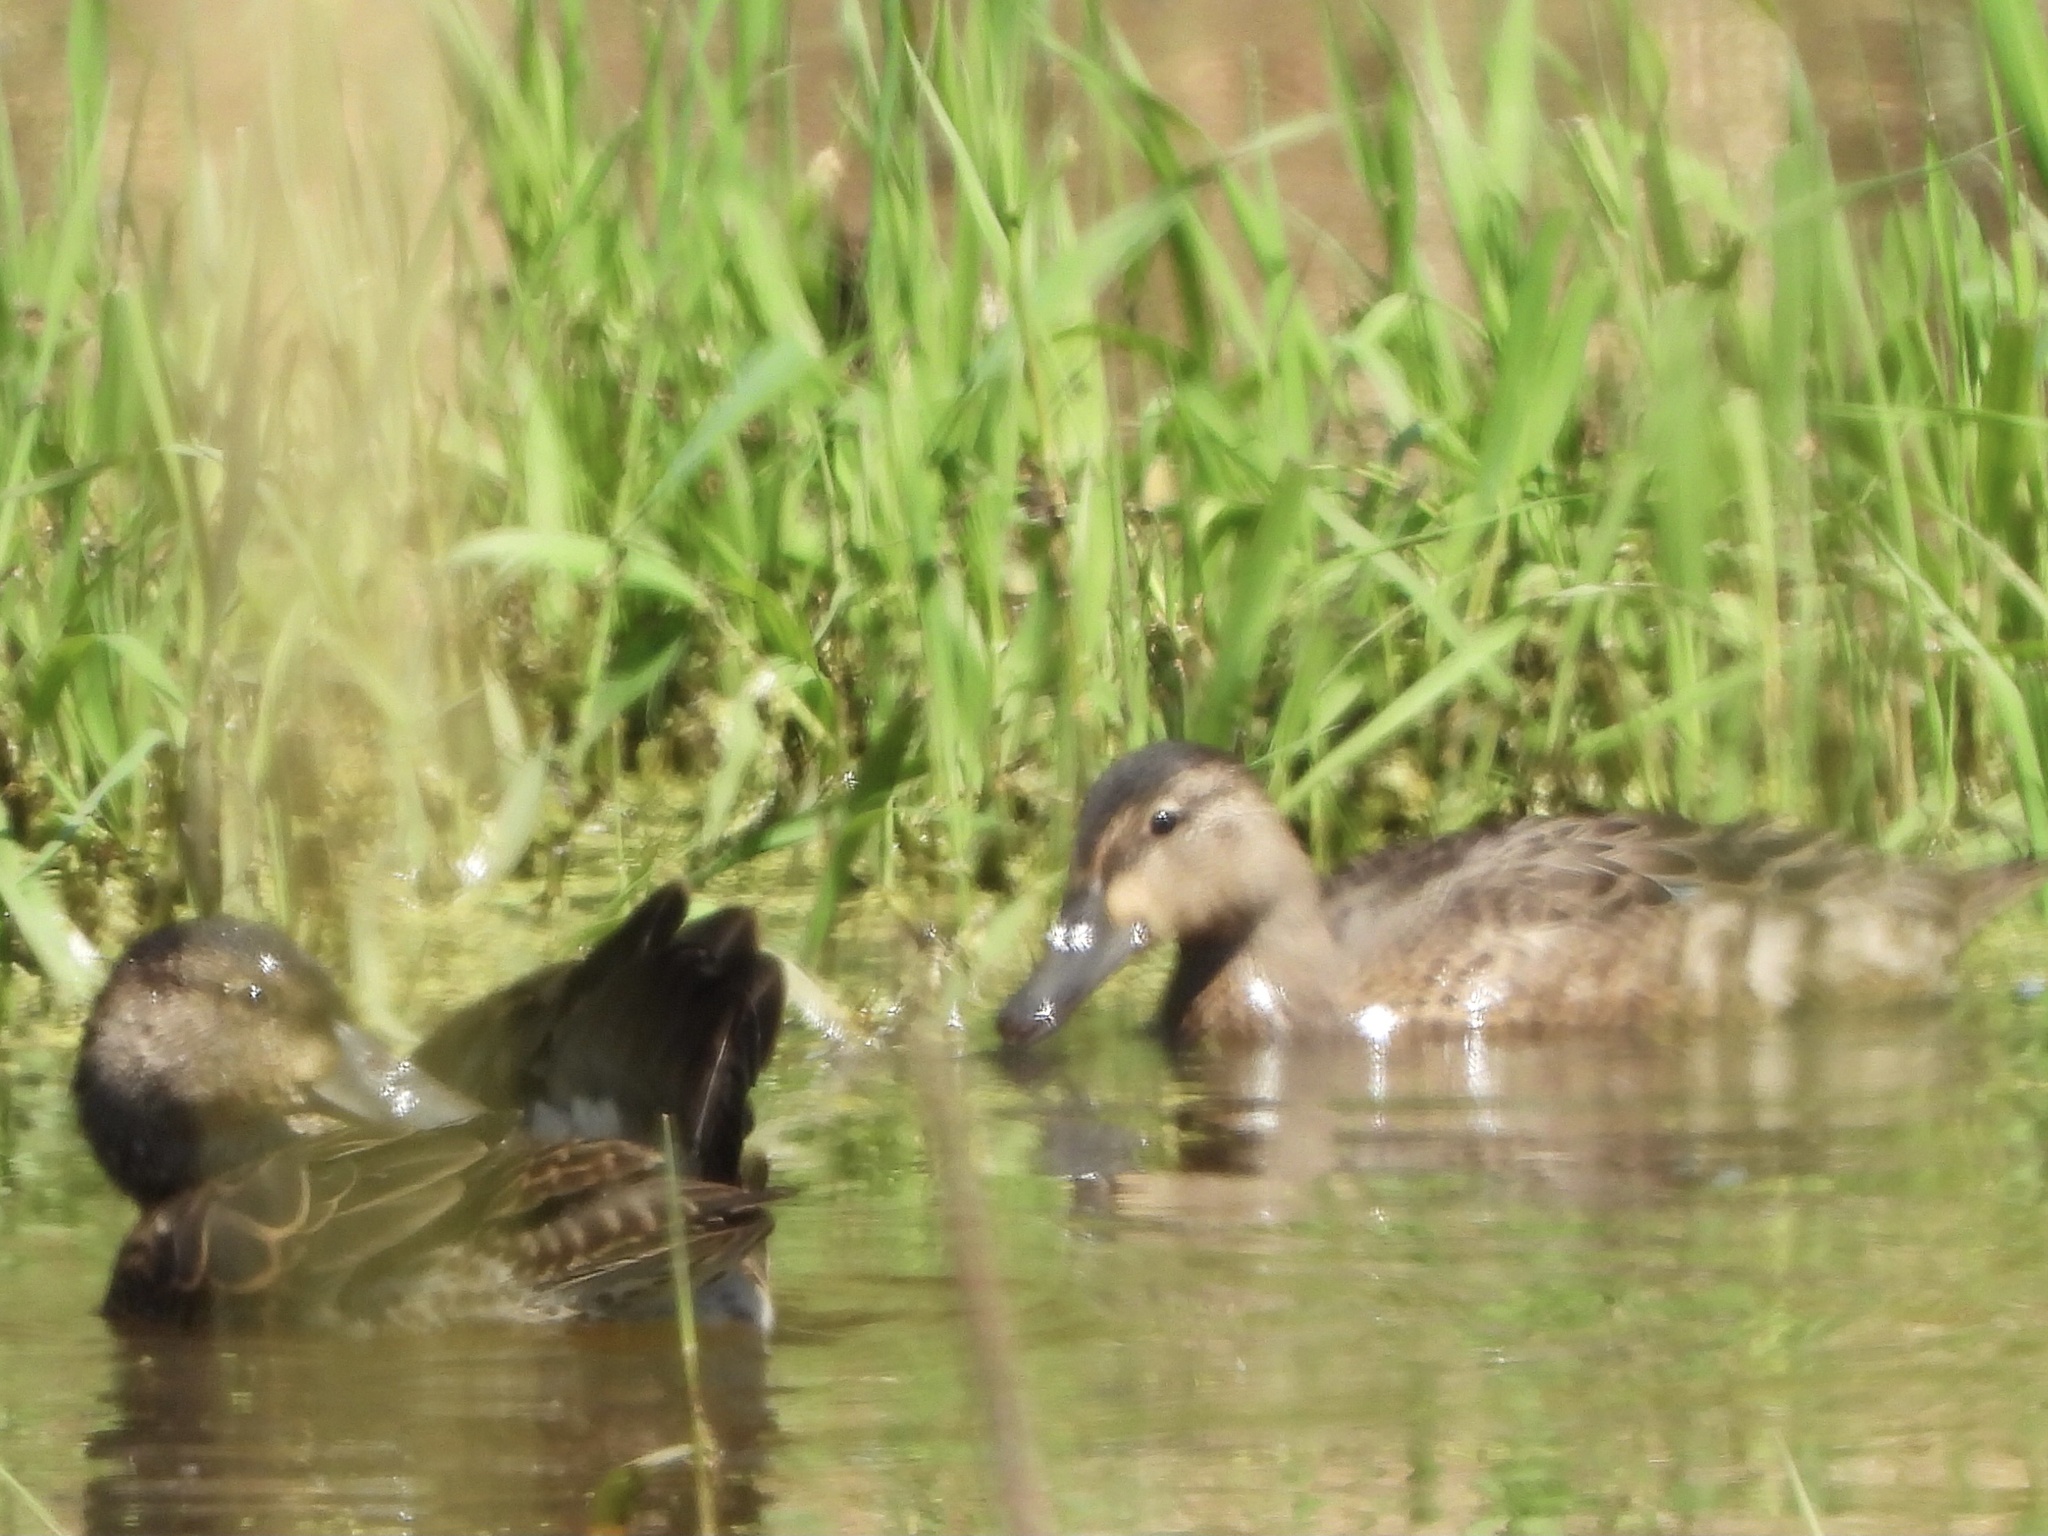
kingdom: Animalia
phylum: Chordata
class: Aves
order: Anseriformes
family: Anatidae
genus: Spatula
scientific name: Spatula discors
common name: Blue-winged teal
